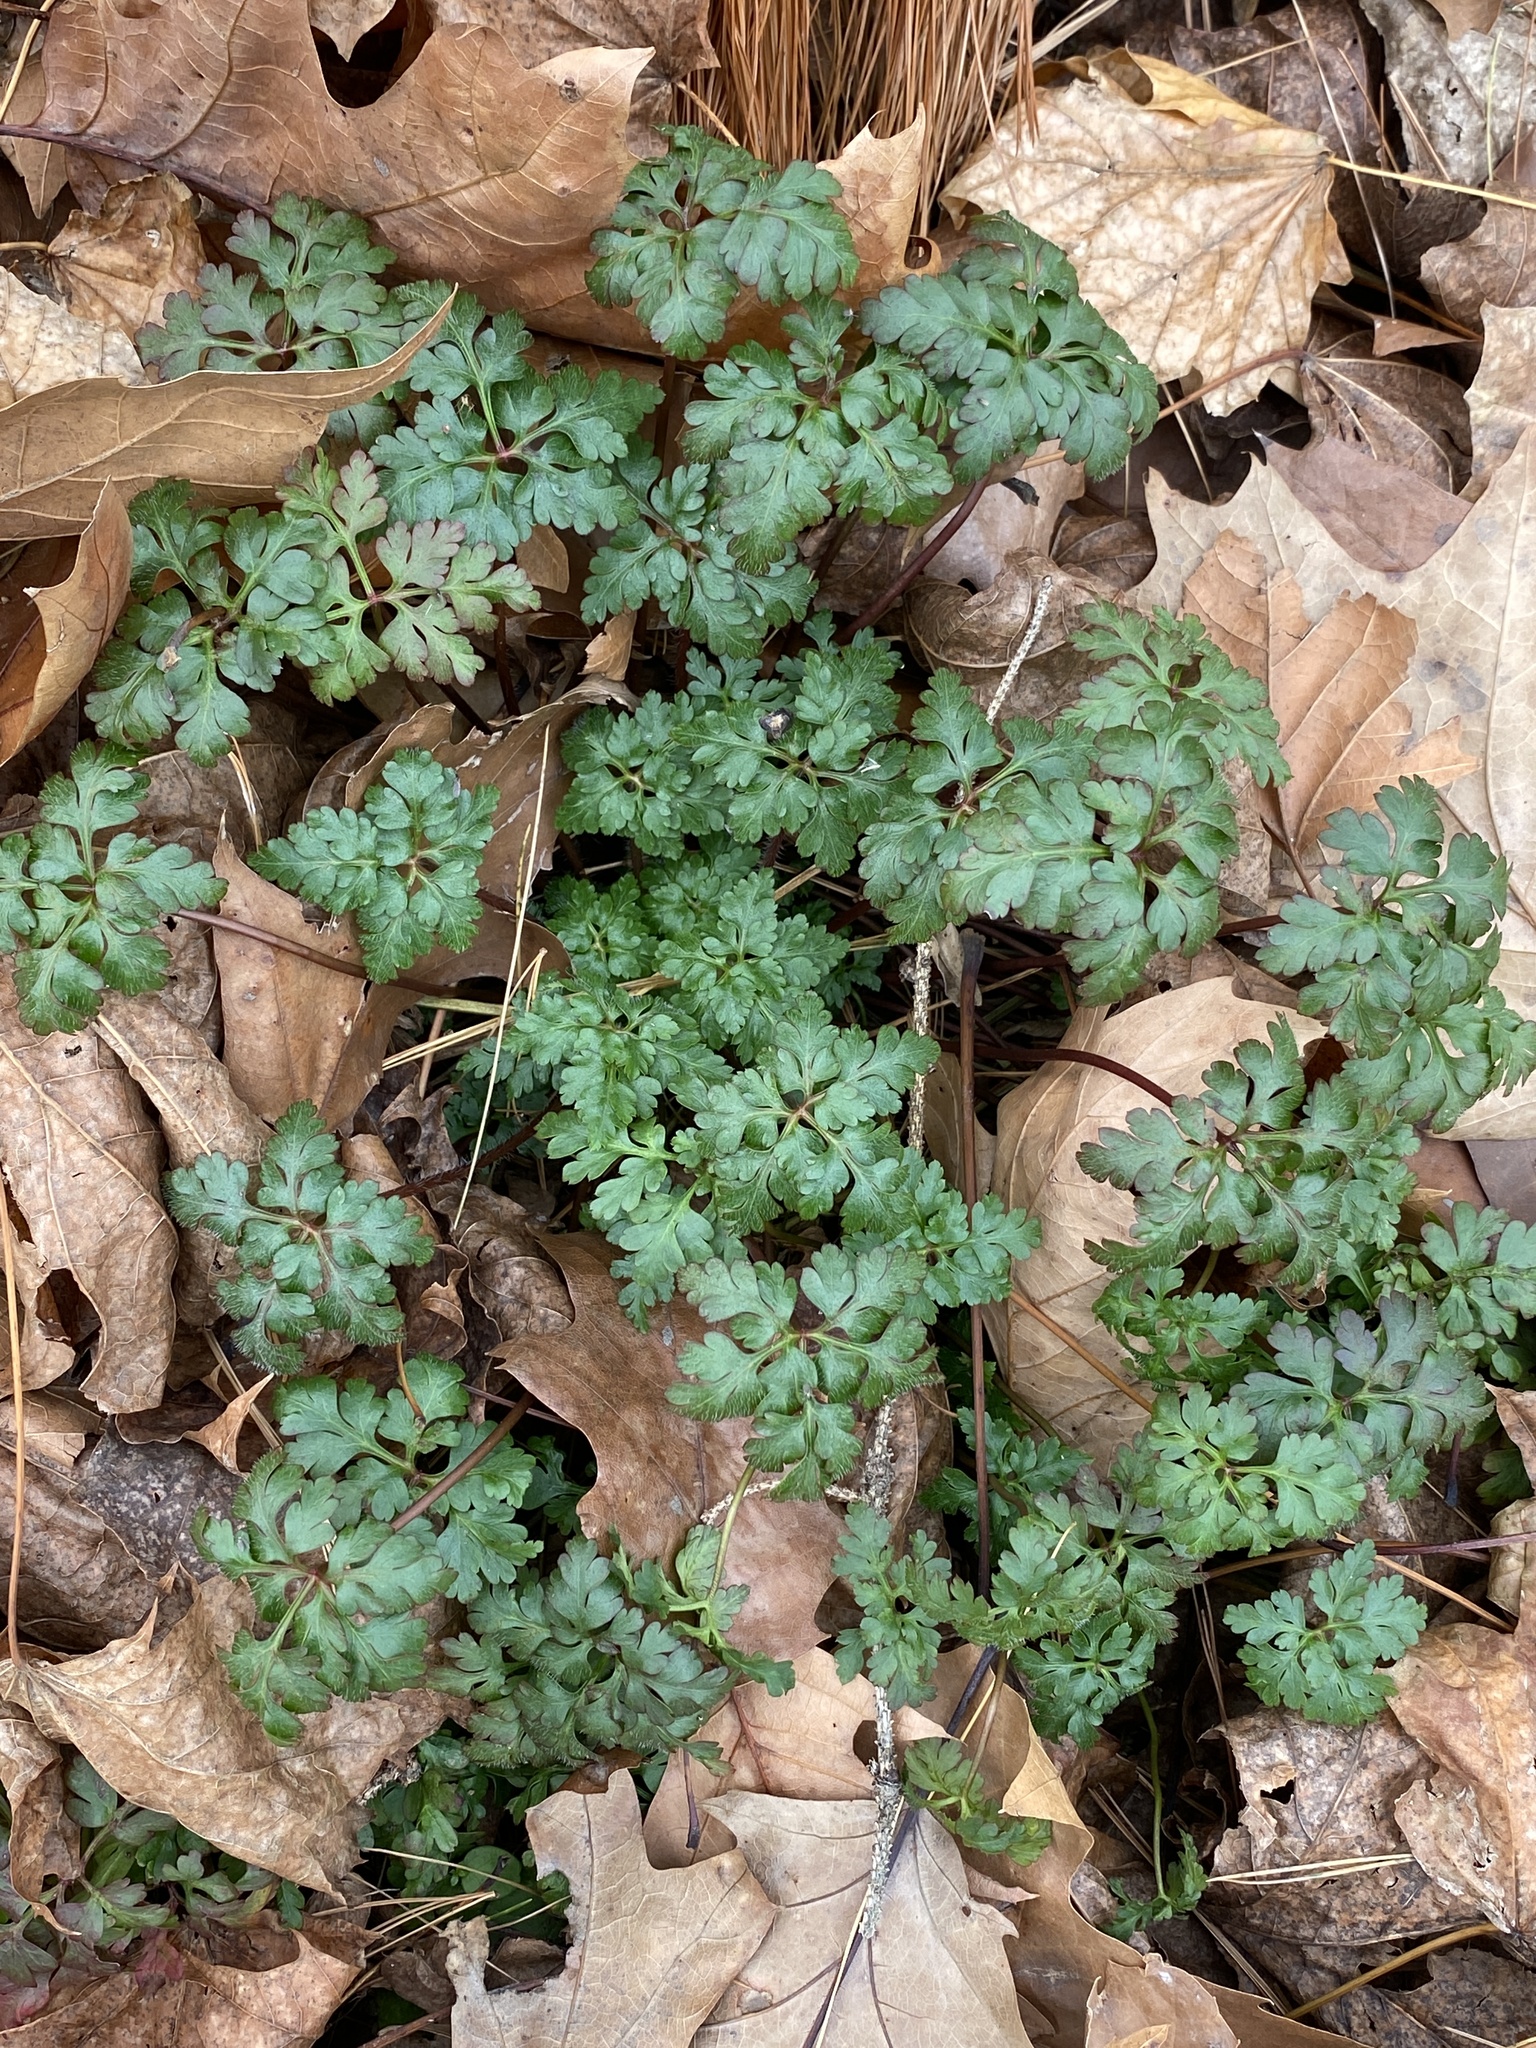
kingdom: Plantae
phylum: Tracheophyta
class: Magnoliopsida
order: Geraniales
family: Geraniaceae
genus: Geranium
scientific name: Geranium robertianum
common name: Herb-robert
